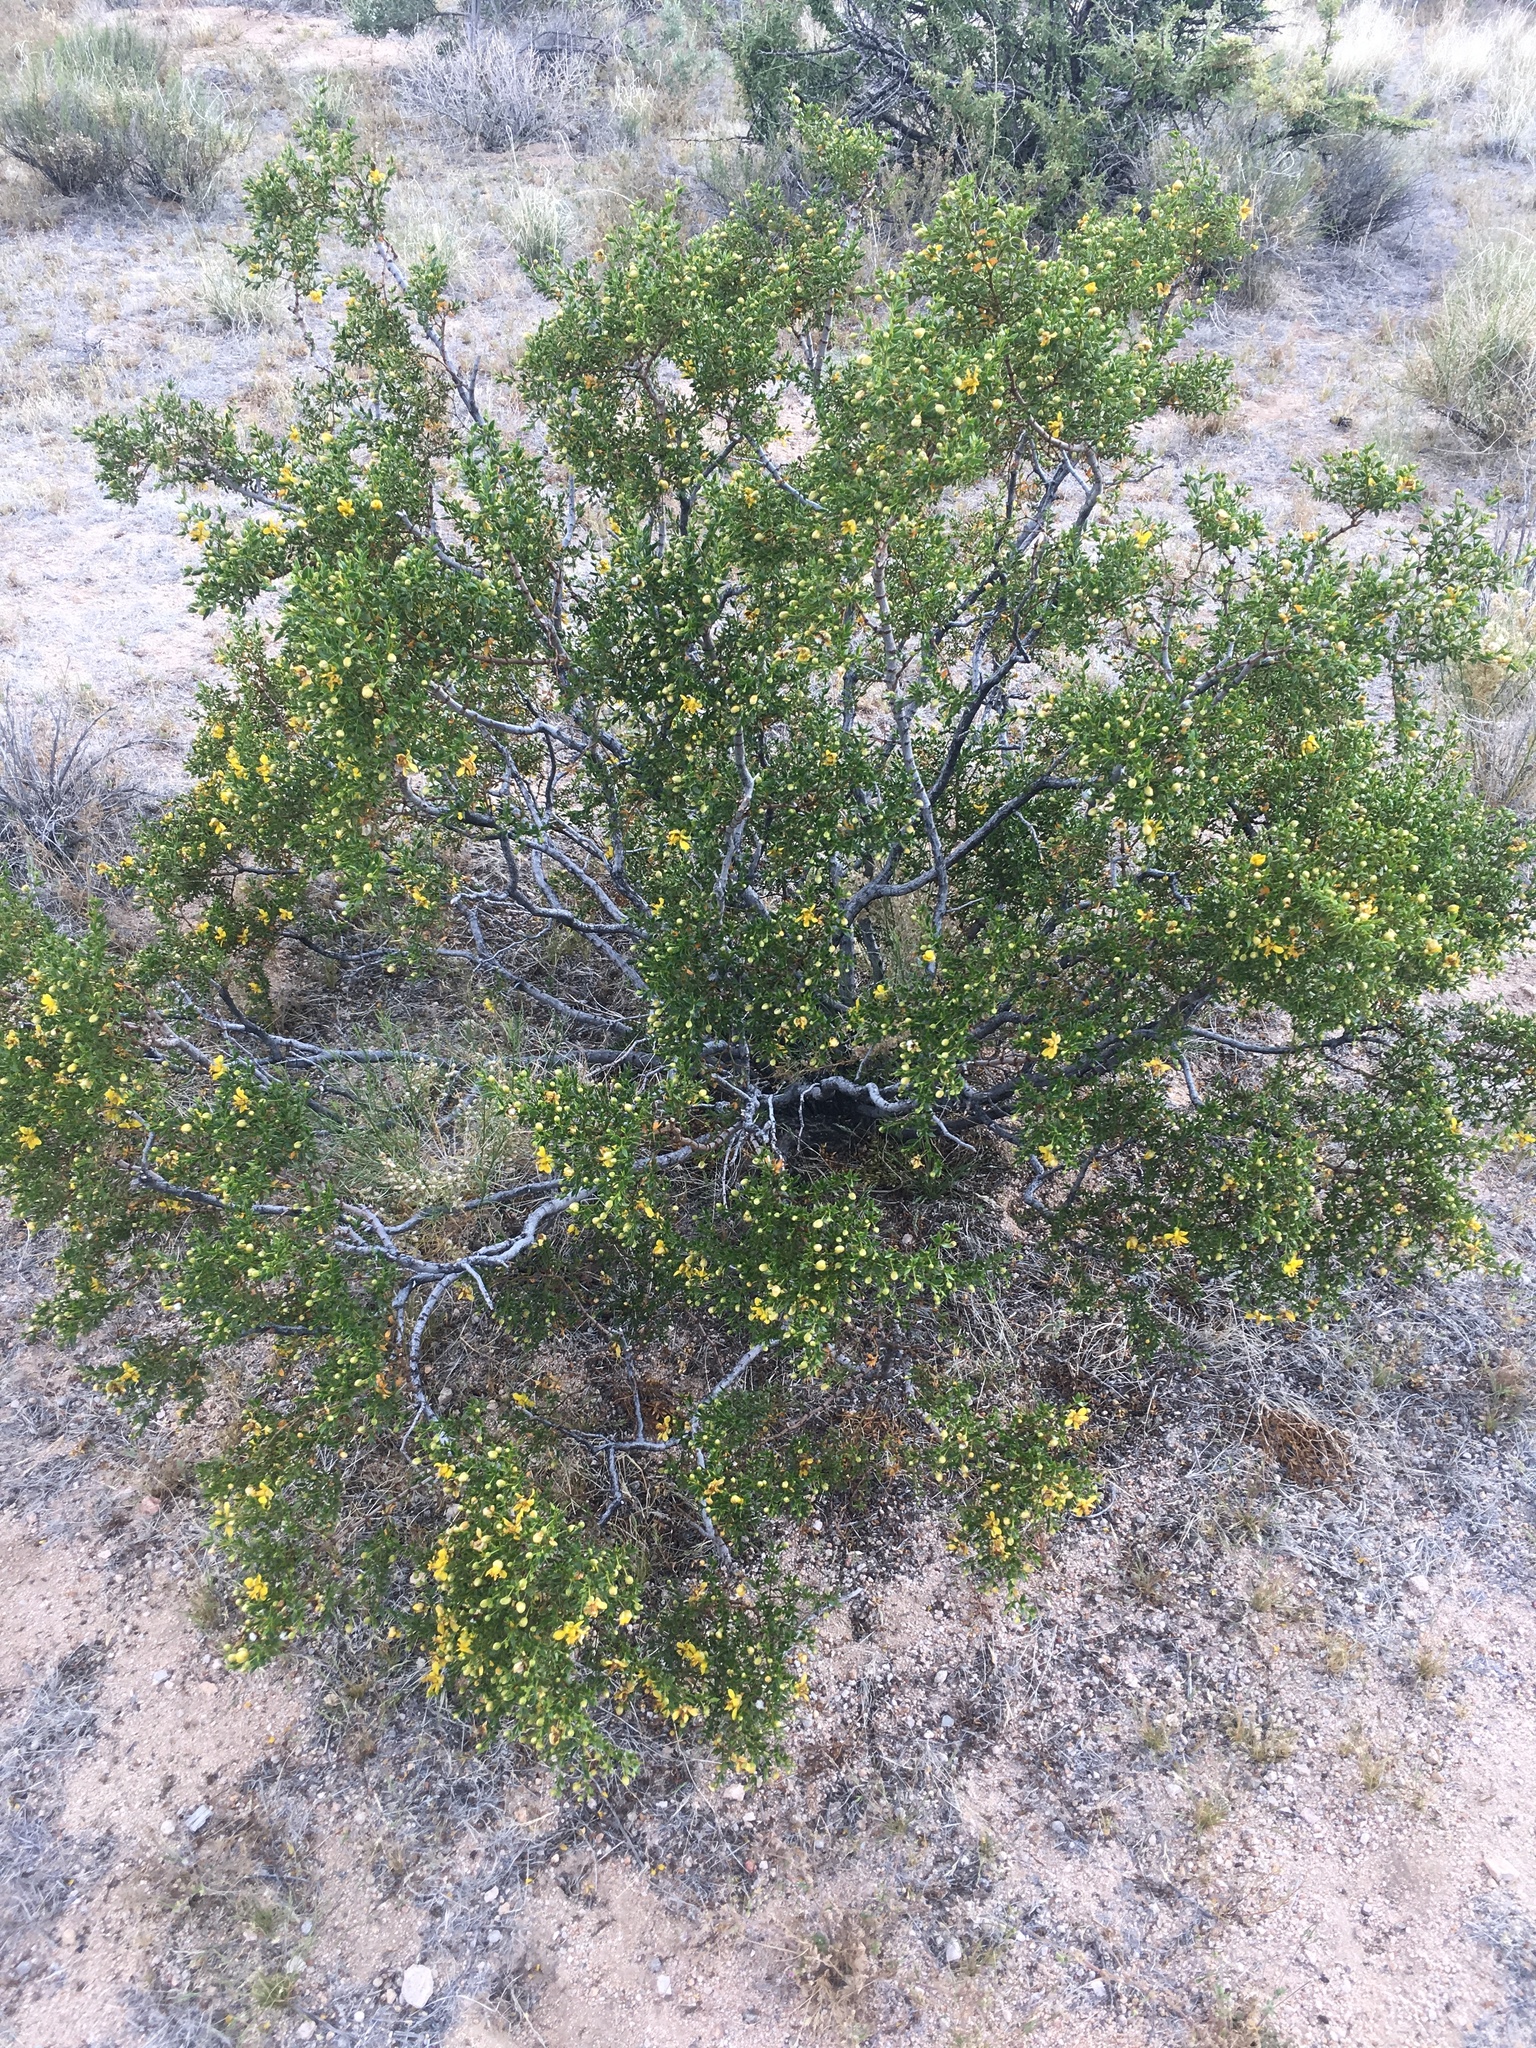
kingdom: Plantae
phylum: Tracheophyta
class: Magnoliopsida
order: Zygophyllales
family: Zygophyllaceae
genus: Larrea
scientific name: Larrea tridentata
